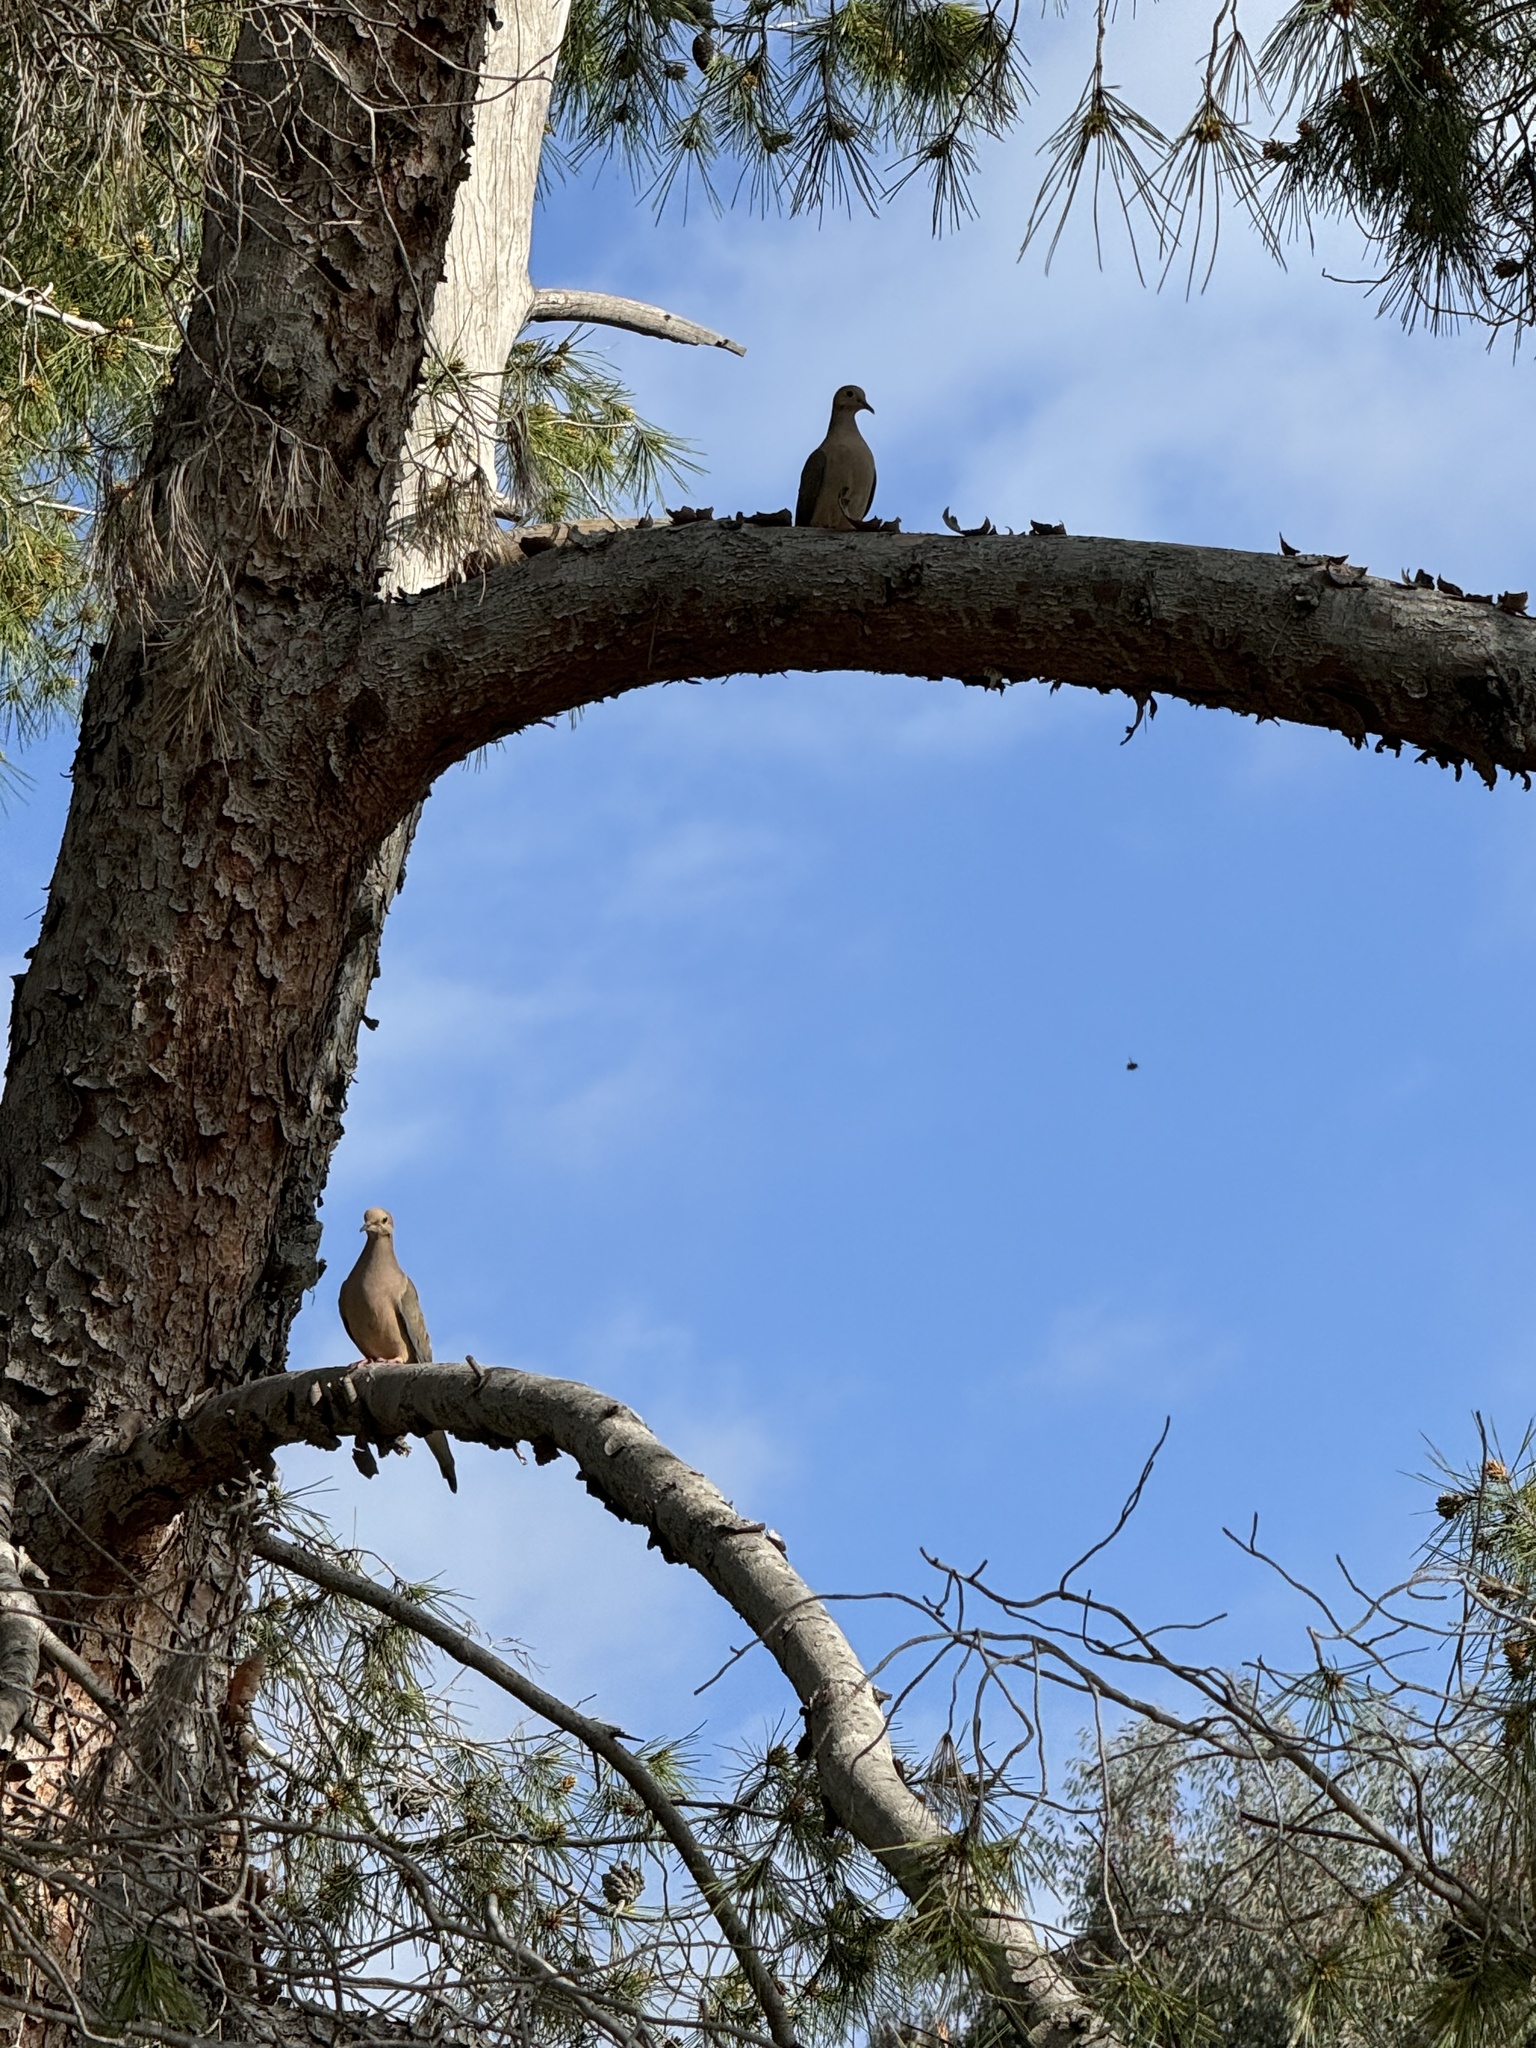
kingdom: Animalia
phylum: Chordata
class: Aves
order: Columbiformes
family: Columbidae
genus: Zenaida
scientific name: Zenaida macroura
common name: Mourning dove
